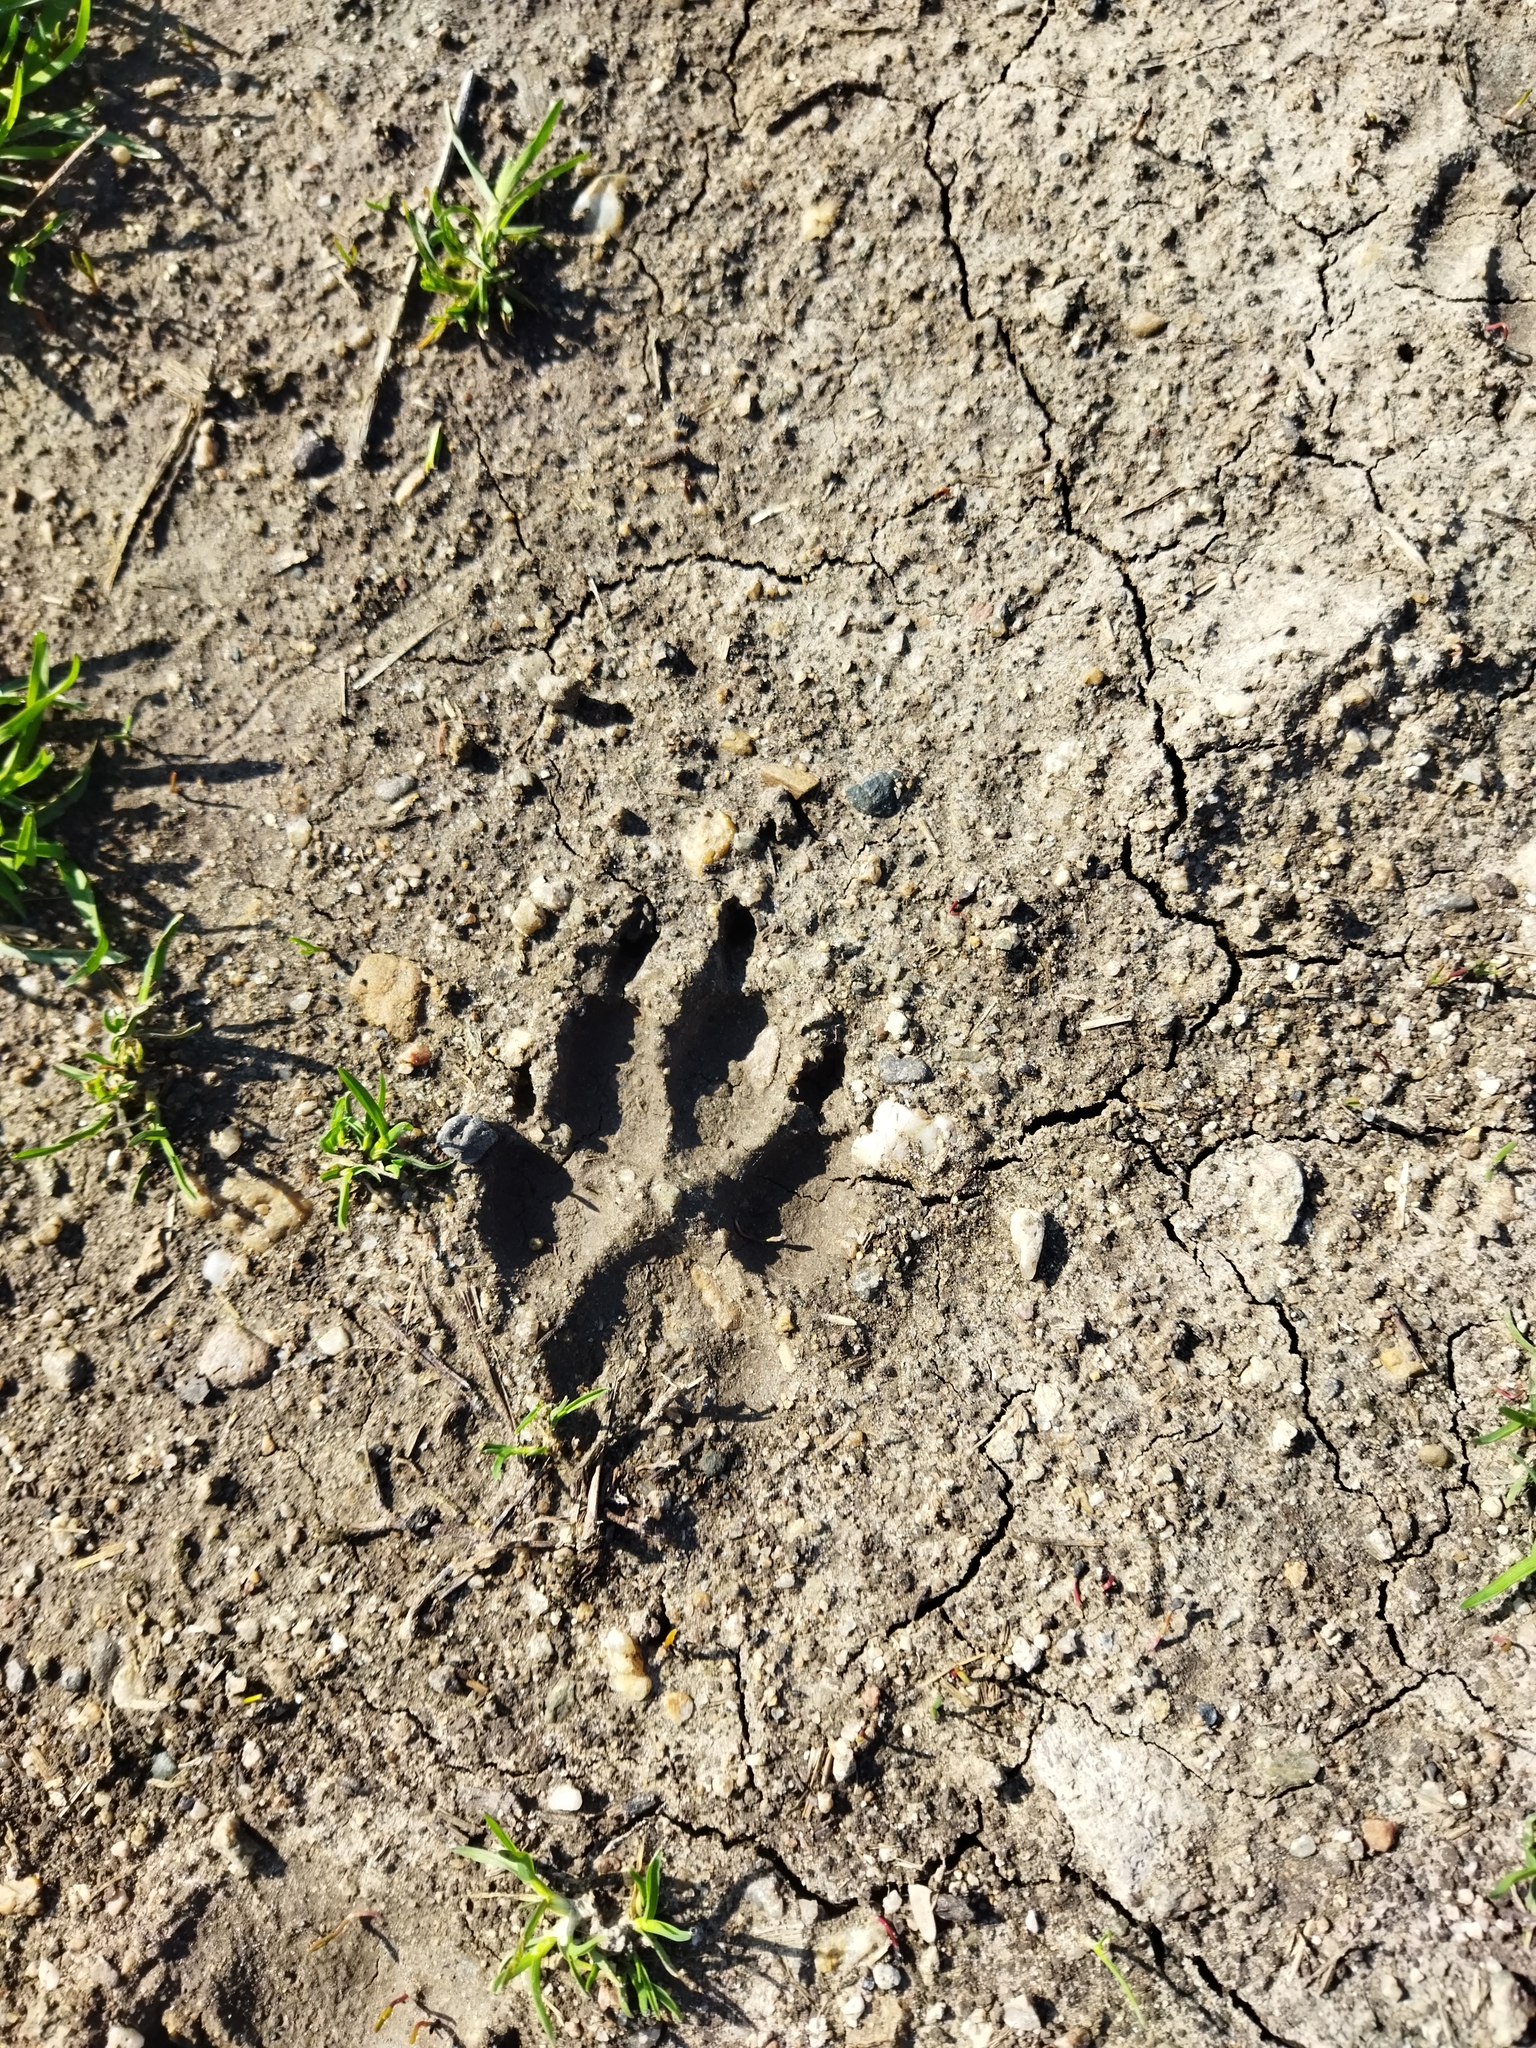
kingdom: Animalia
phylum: Chordata
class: Mammalia
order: Carnivora
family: Canidae
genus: Vulpes
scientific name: Vulpes vulpes
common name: Red fox
